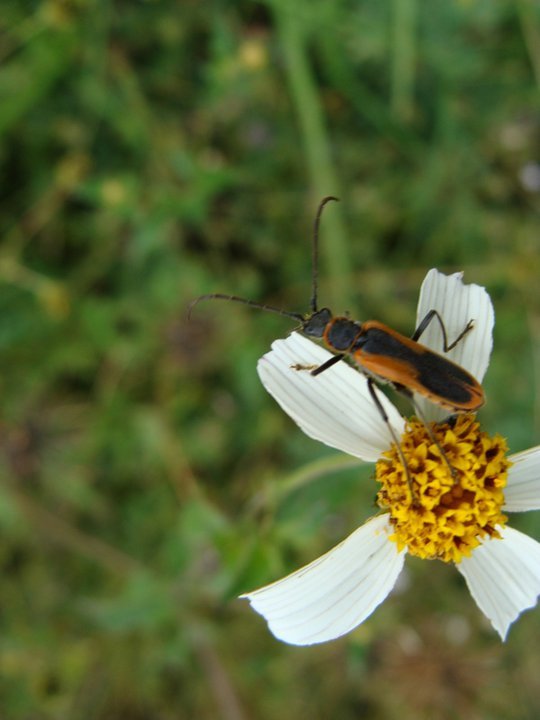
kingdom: Animalia
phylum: Arthropoda
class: Insecta
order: Coleoptera
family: Cantharidae
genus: Chauliognathus
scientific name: Chauliognathus limbicollis
